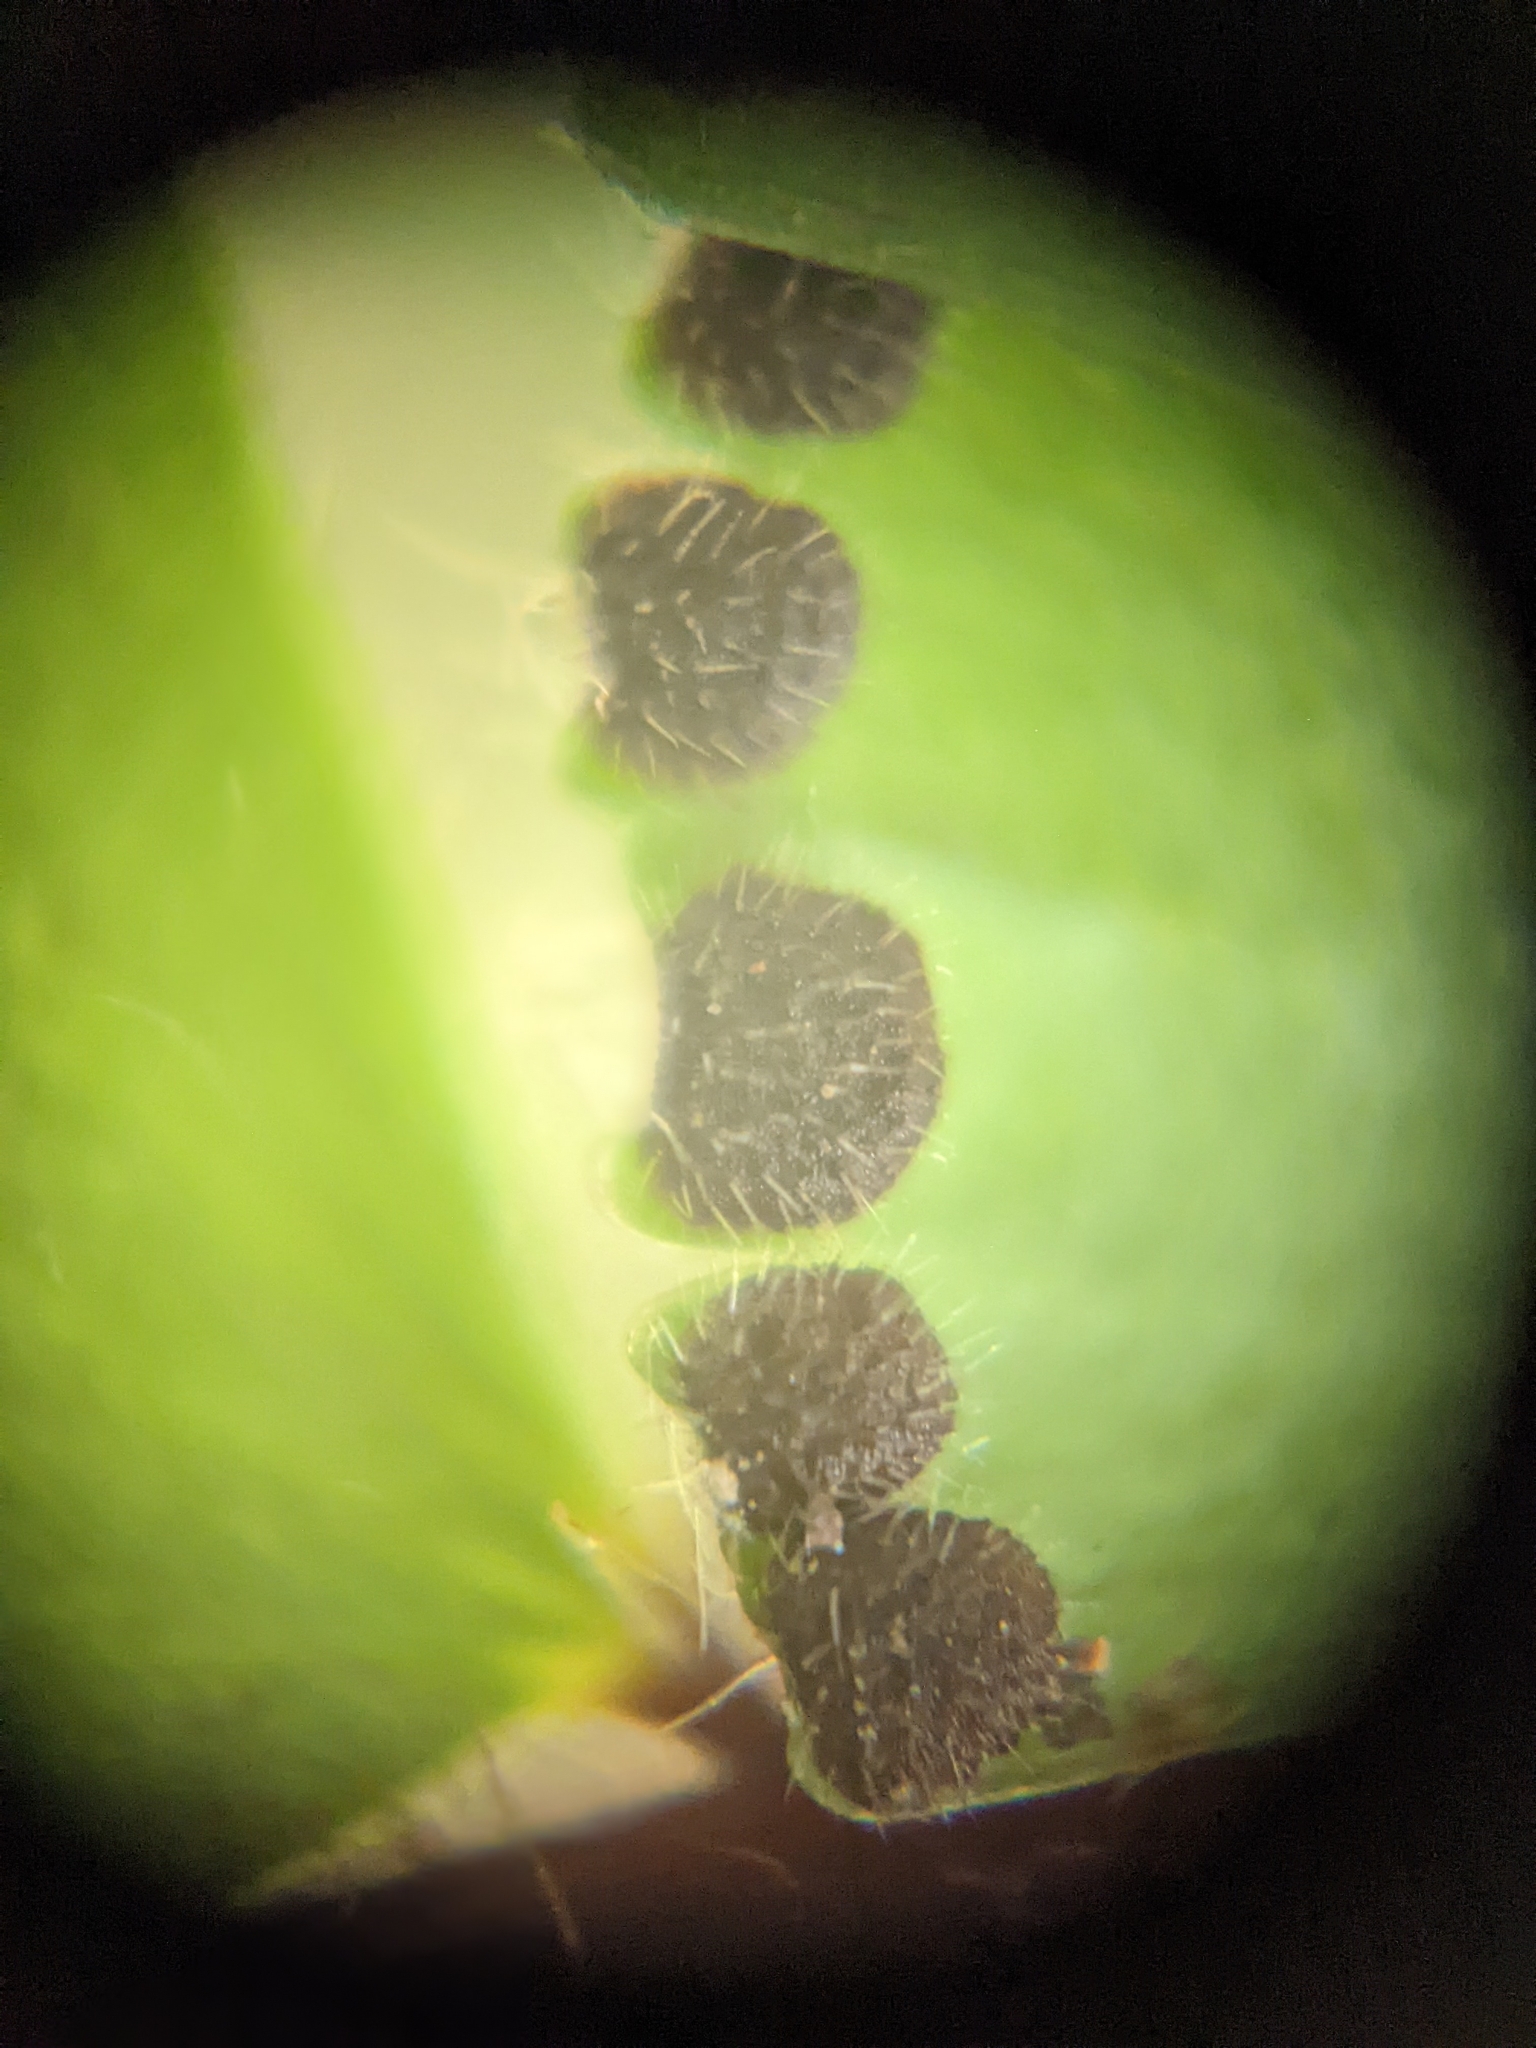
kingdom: Plantae
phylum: Tracheophyta
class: Polypodiopsida
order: Polypodiales
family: Pteridaceae
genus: Adiantum
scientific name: Adiantum caudatum
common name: Tailed maidenhair
